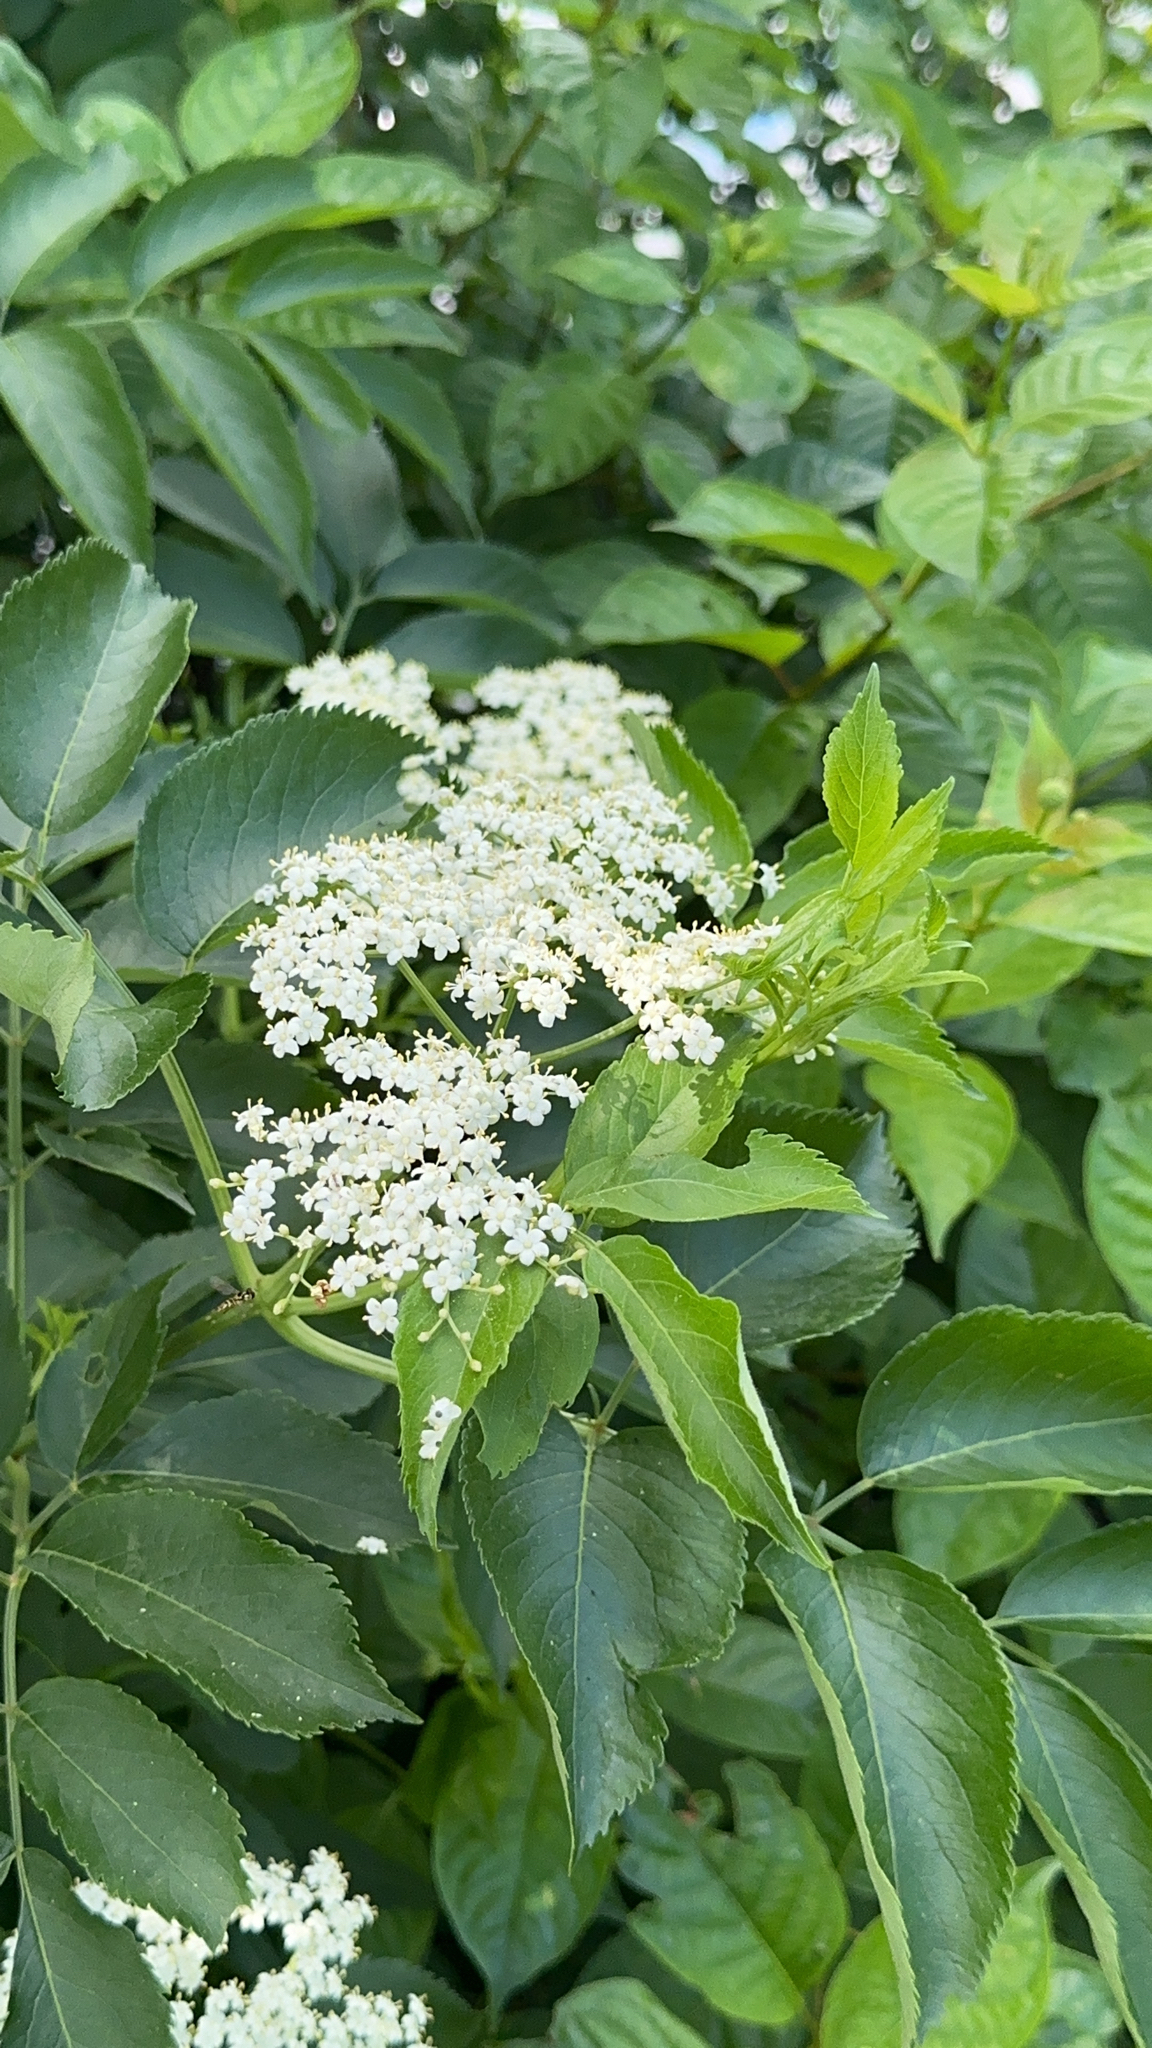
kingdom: Plantae
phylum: Tracheophyta
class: Magnoliopsida
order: Dipsacales
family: Viburnaceae
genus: Sambucus
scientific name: Sambucus canadensis
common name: American elder
